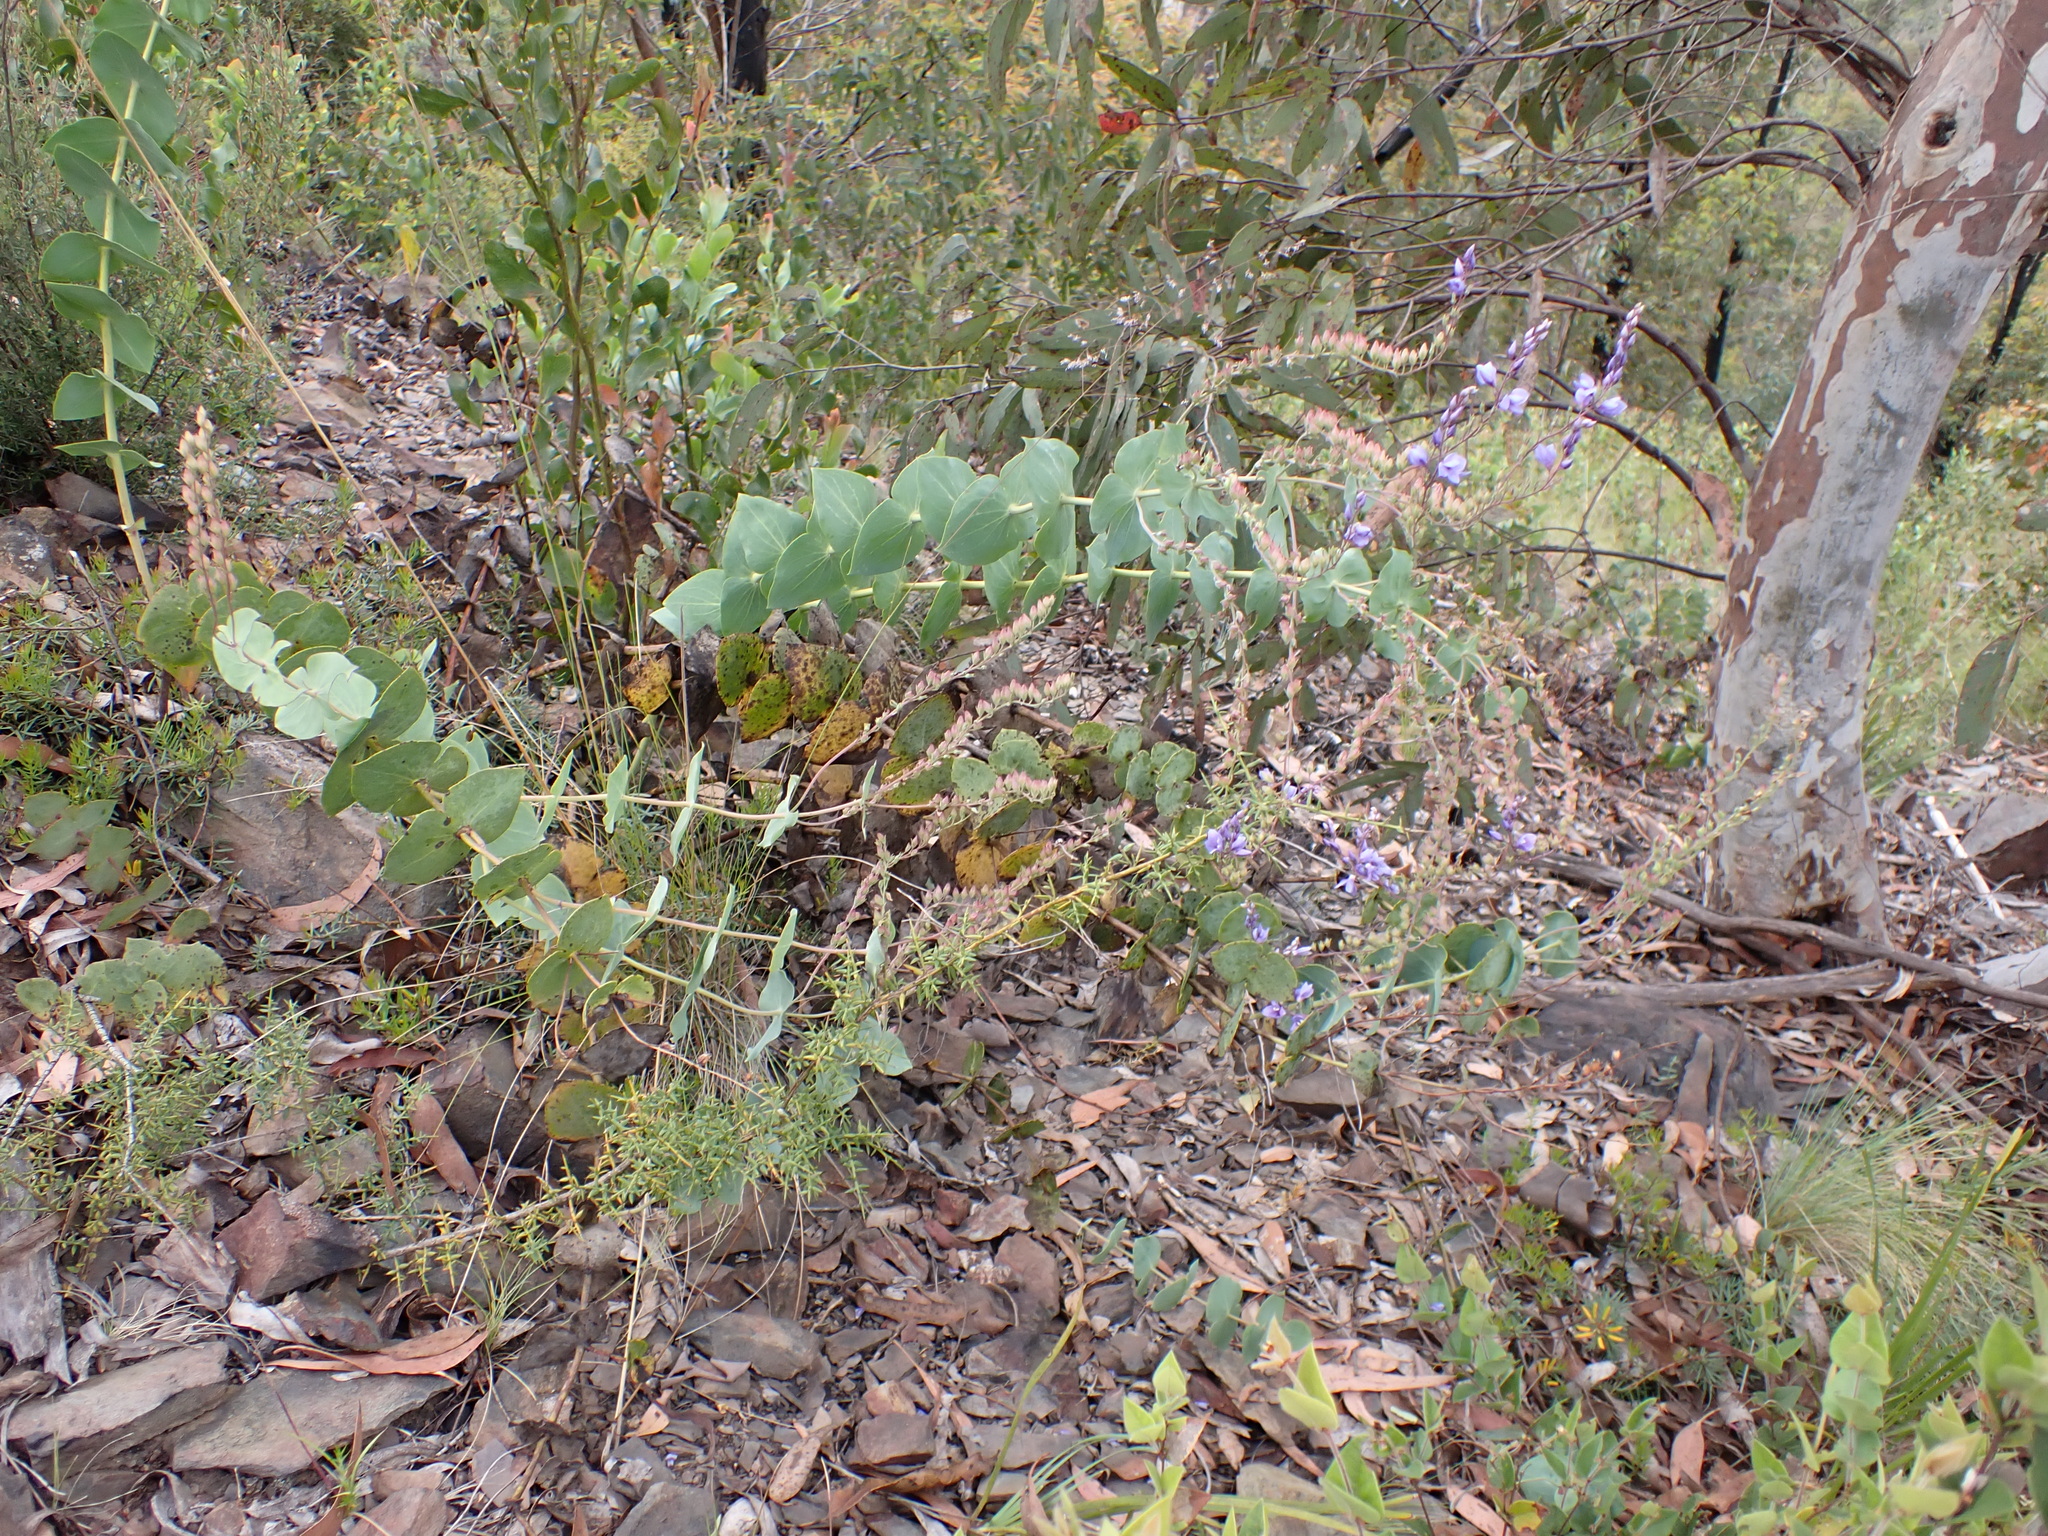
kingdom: Plantae
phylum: Tracheophyta
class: Magnoliopsida
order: Lamiales
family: Plantaginaceae
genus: Veronica
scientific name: Veronica perfoliata
